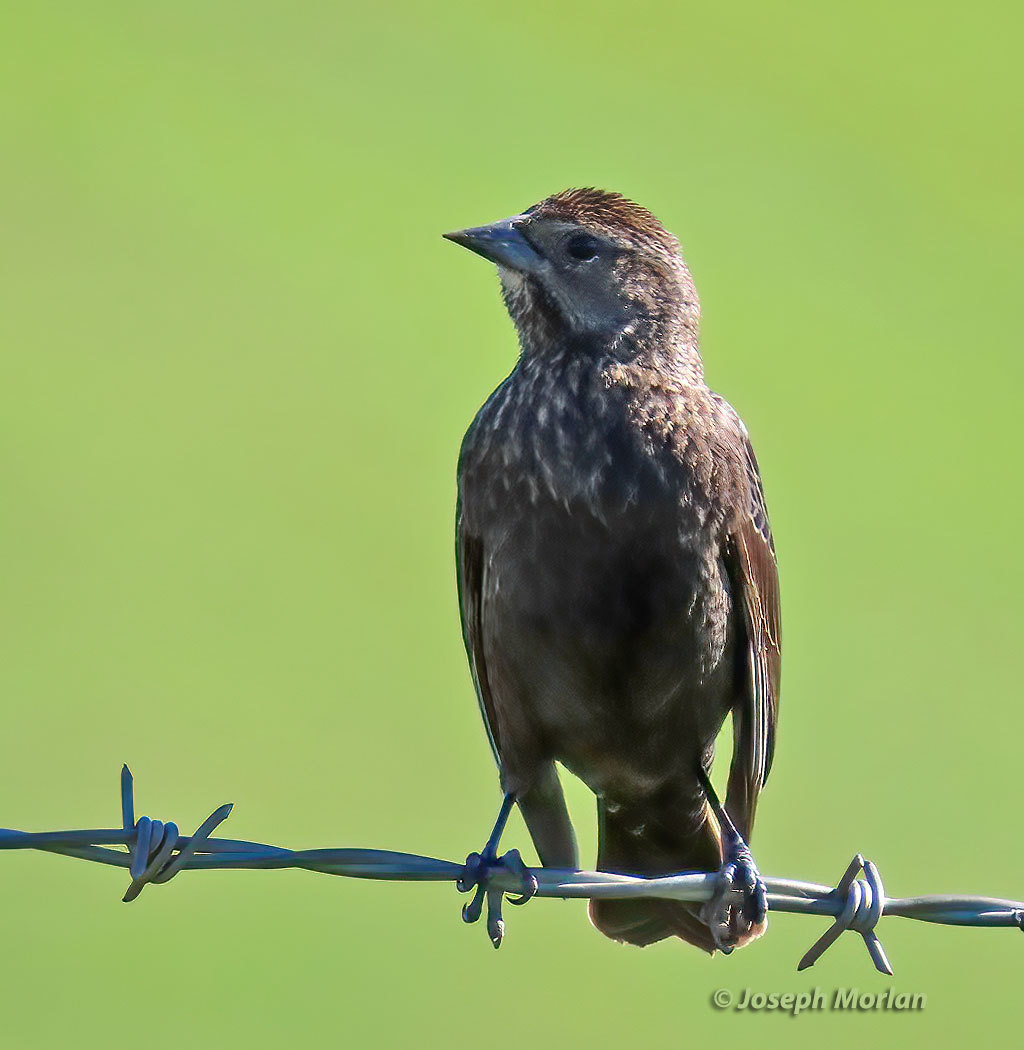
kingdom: Animalia
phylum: Chordata
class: Aves
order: Passeriformes
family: Icteridae
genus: Agelaius
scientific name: Agelaius phoeniceus
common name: Red-winged blackbird
